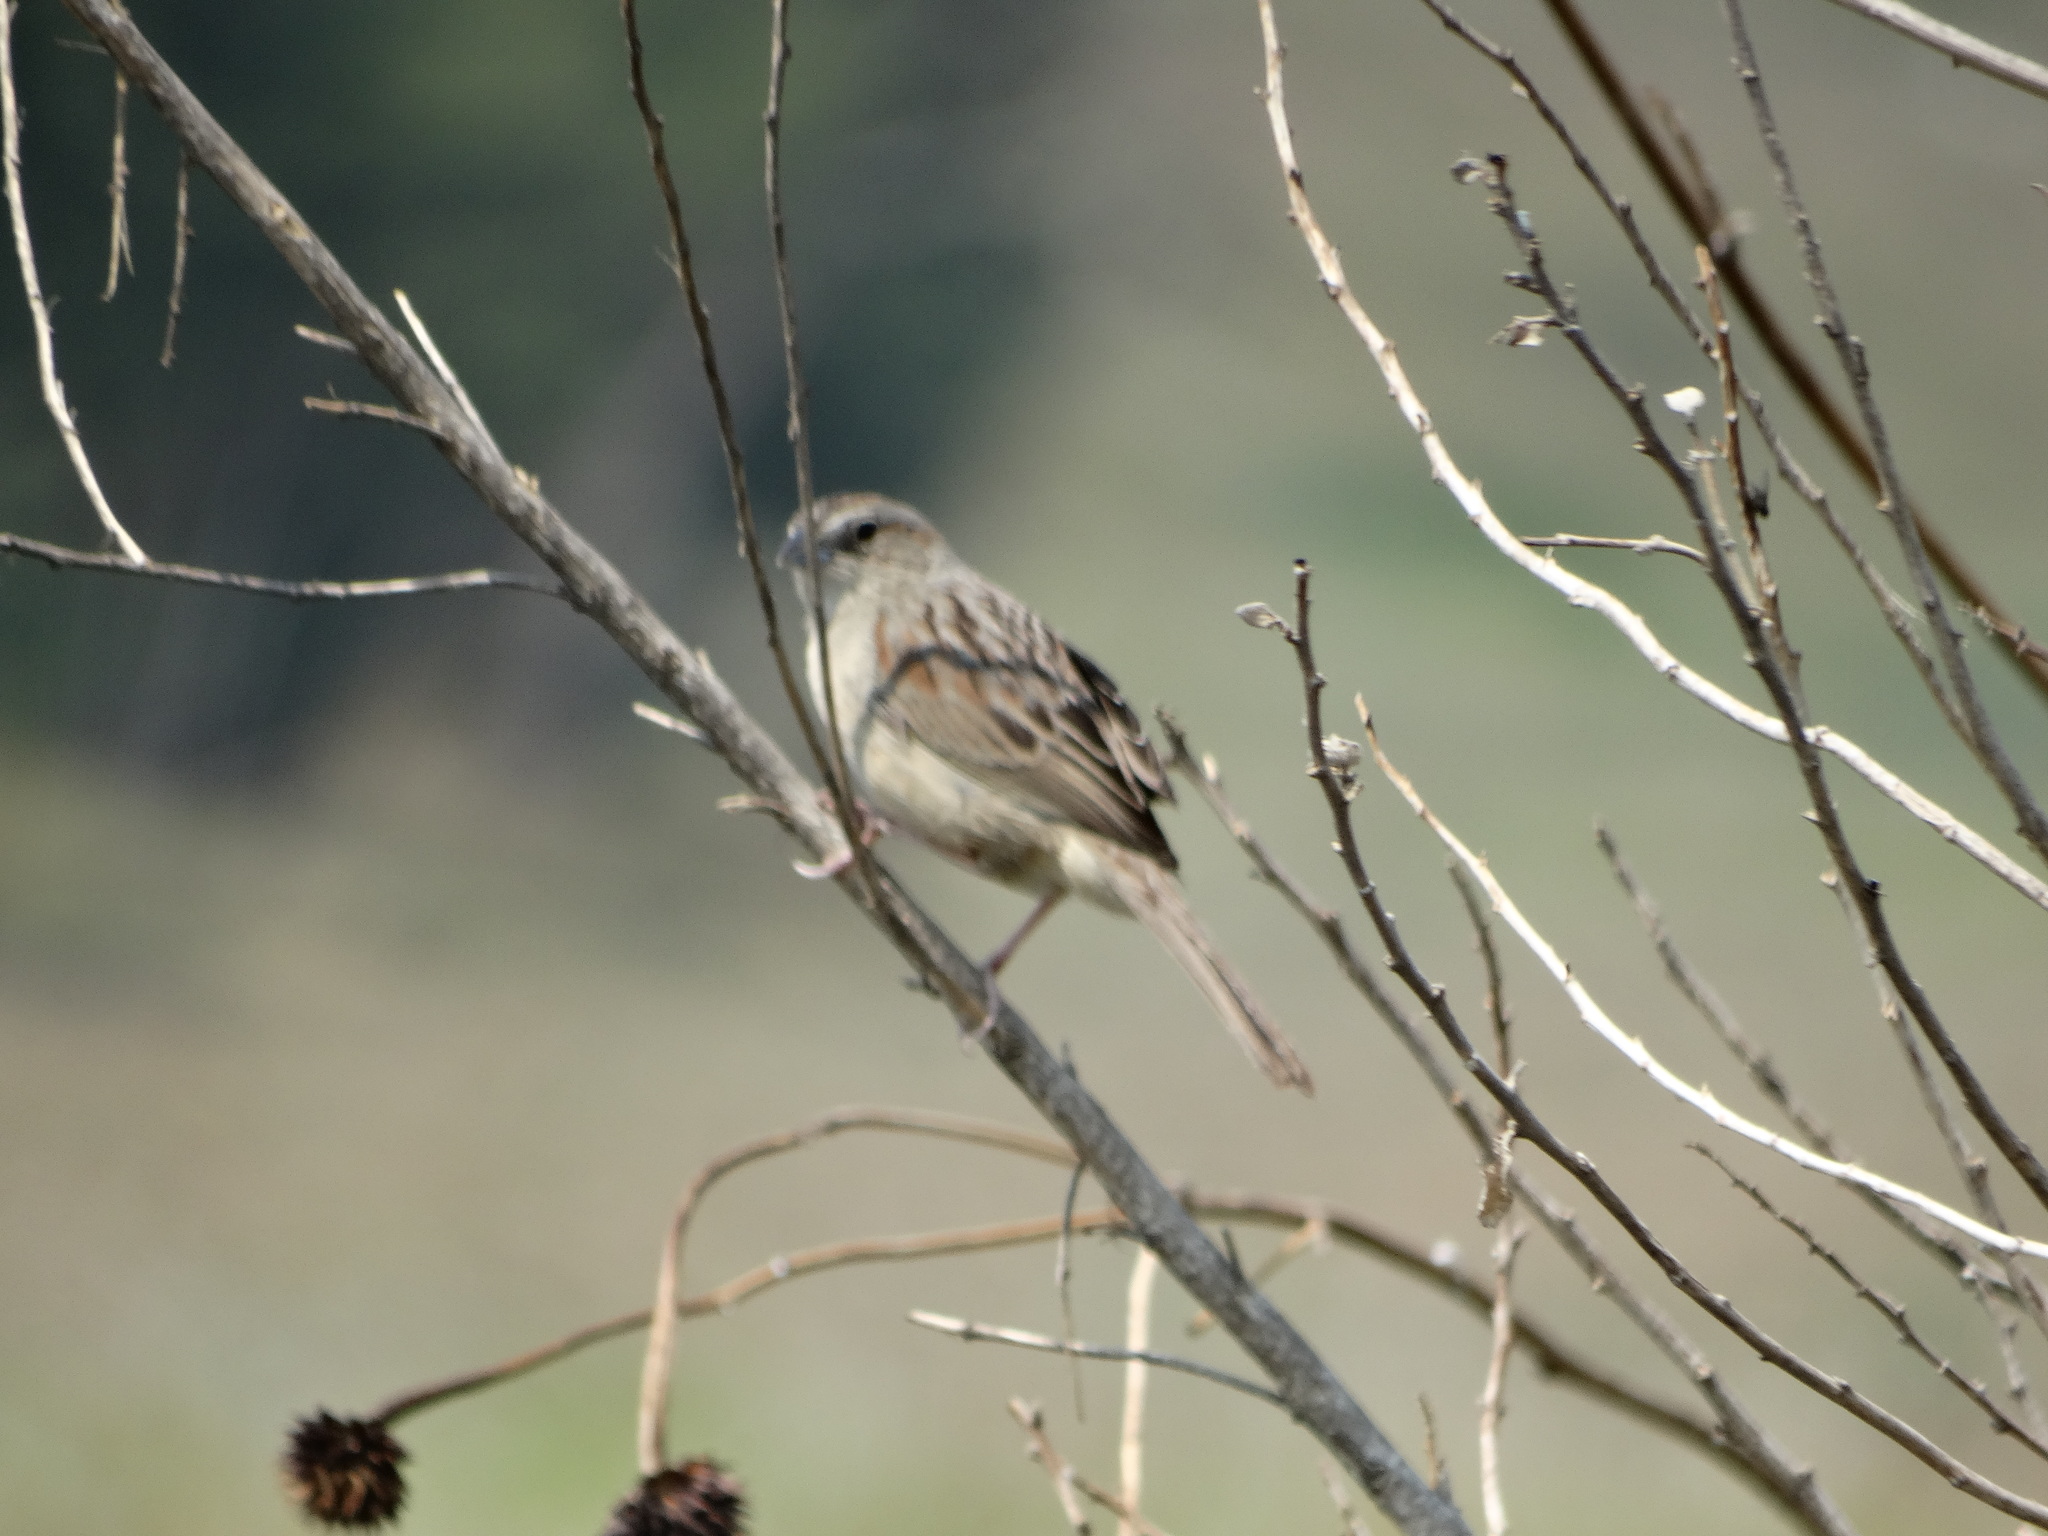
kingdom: Animalia
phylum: Chordata
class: Aves
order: Passeriformes
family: Passerellidae
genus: Peucaea
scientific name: Peucaea botterii
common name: Botteri's sparrow
